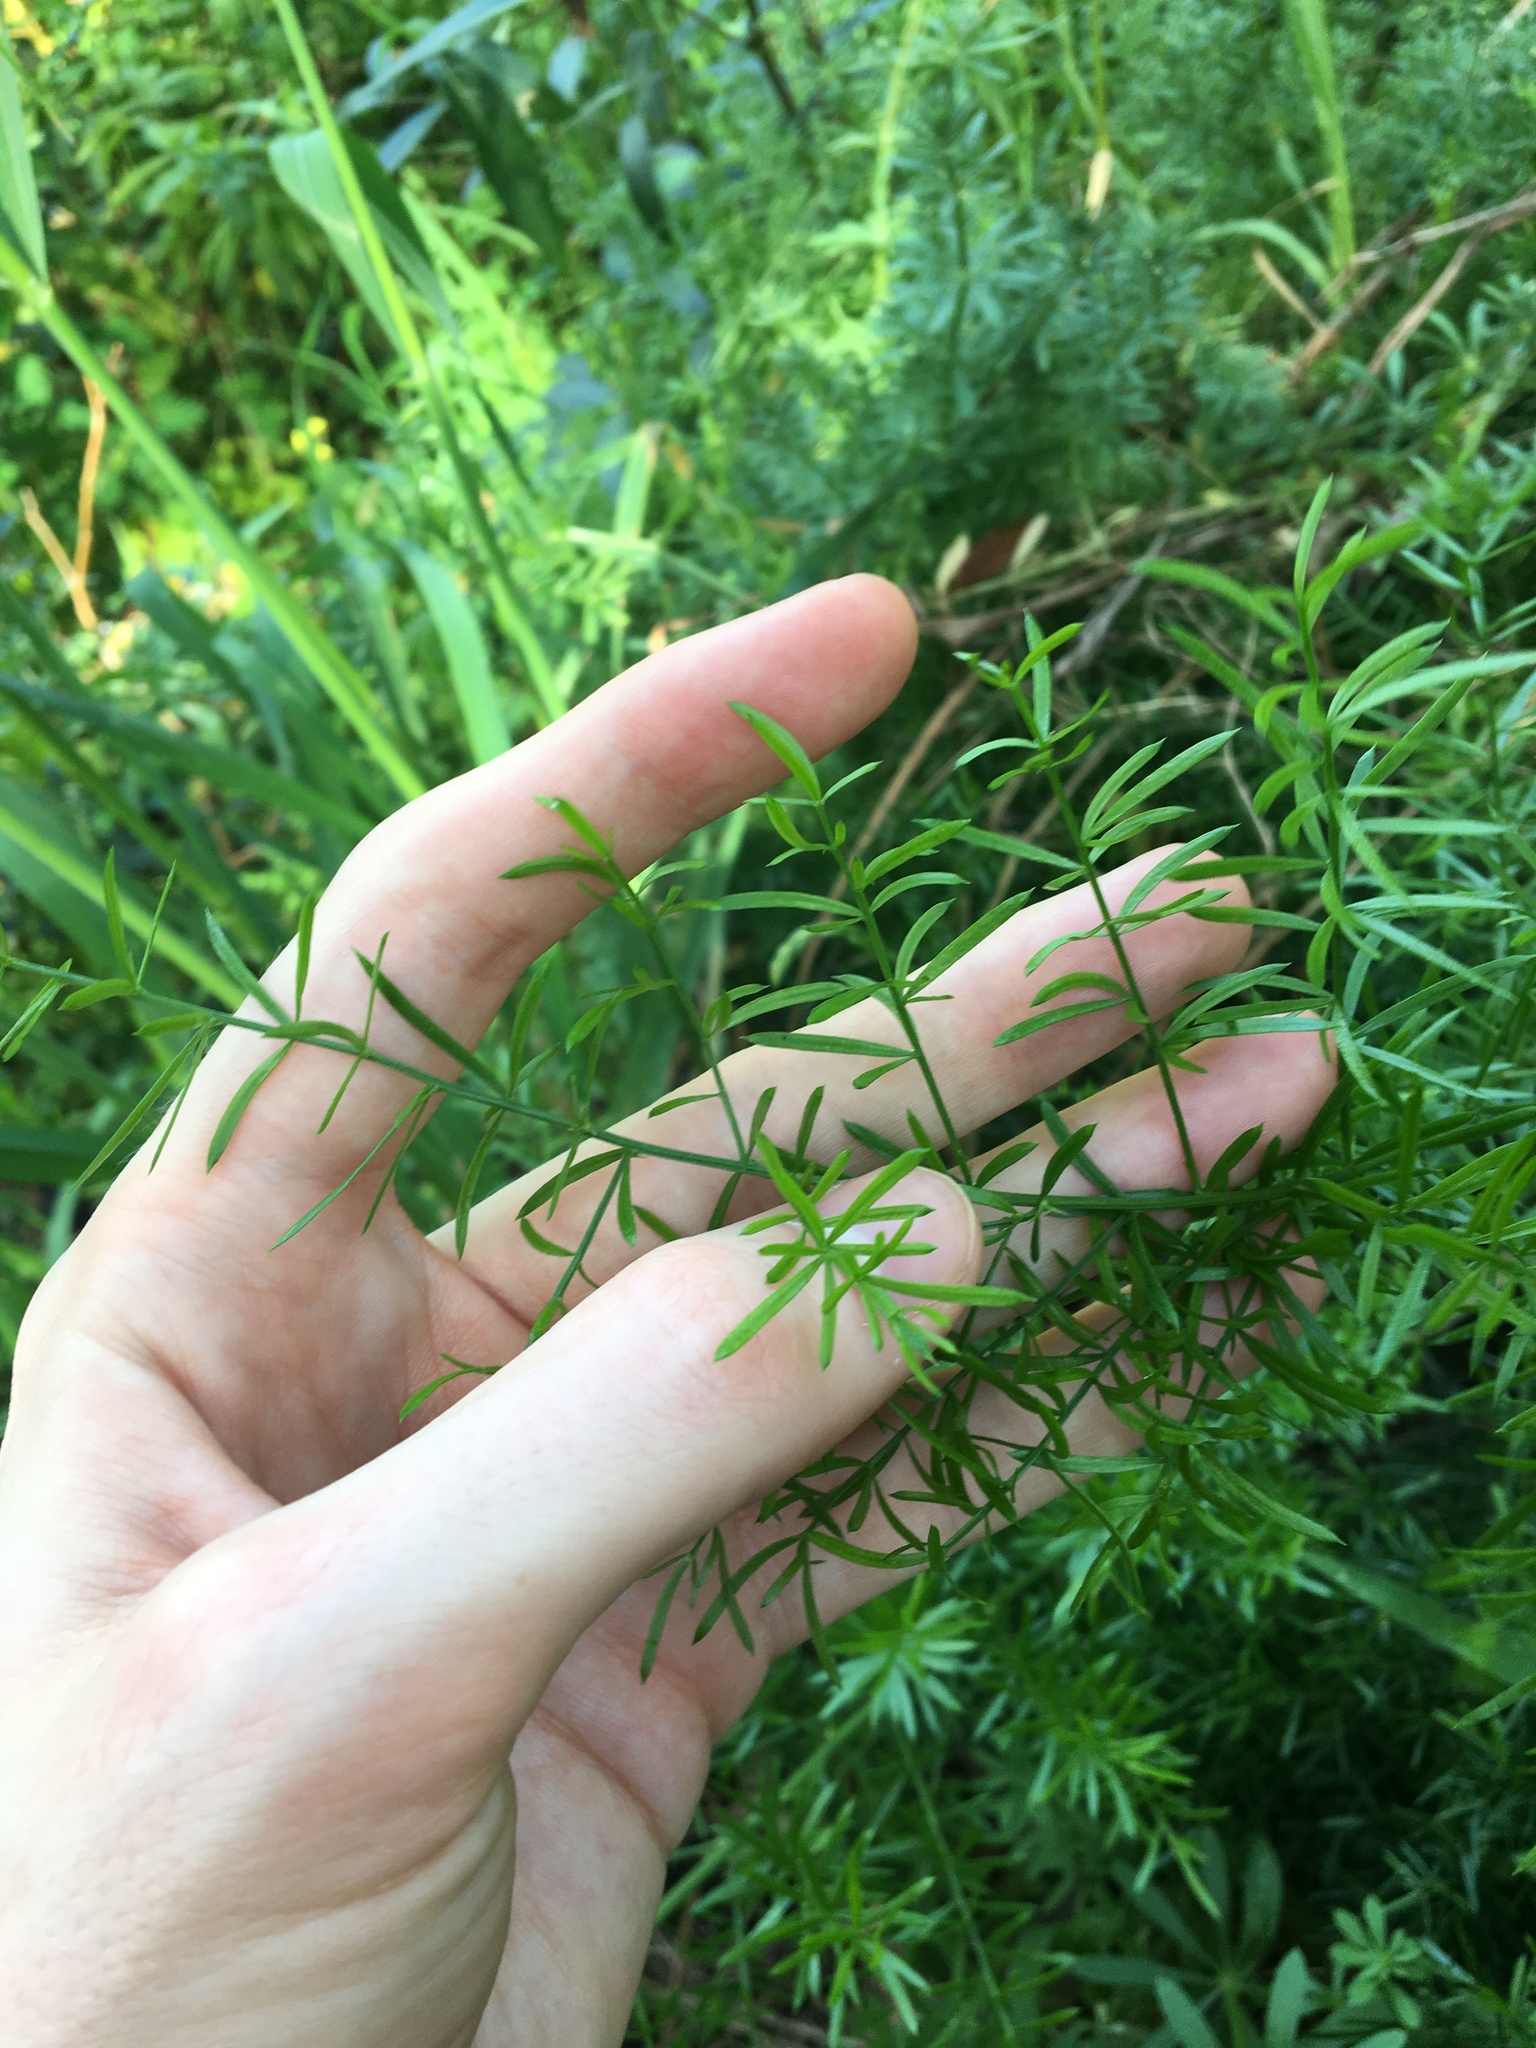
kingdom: Plantae
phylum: Tracheophyta
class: Liliopsida
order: Asparagales
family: Asparagaceae
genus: Asparagus
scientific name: Asparagus aethiopicus
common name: Sprenger's asparagus fern
